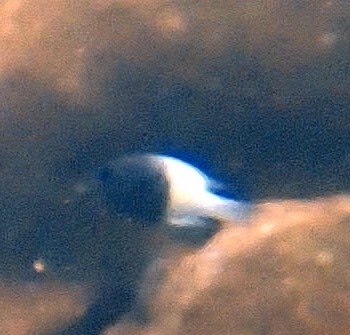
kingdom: Animalia
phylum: Chordata
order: Perciformes
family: Pomacentridae
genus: Chromis
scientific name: Chromis fieldi
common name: Chocolatedip chromis
